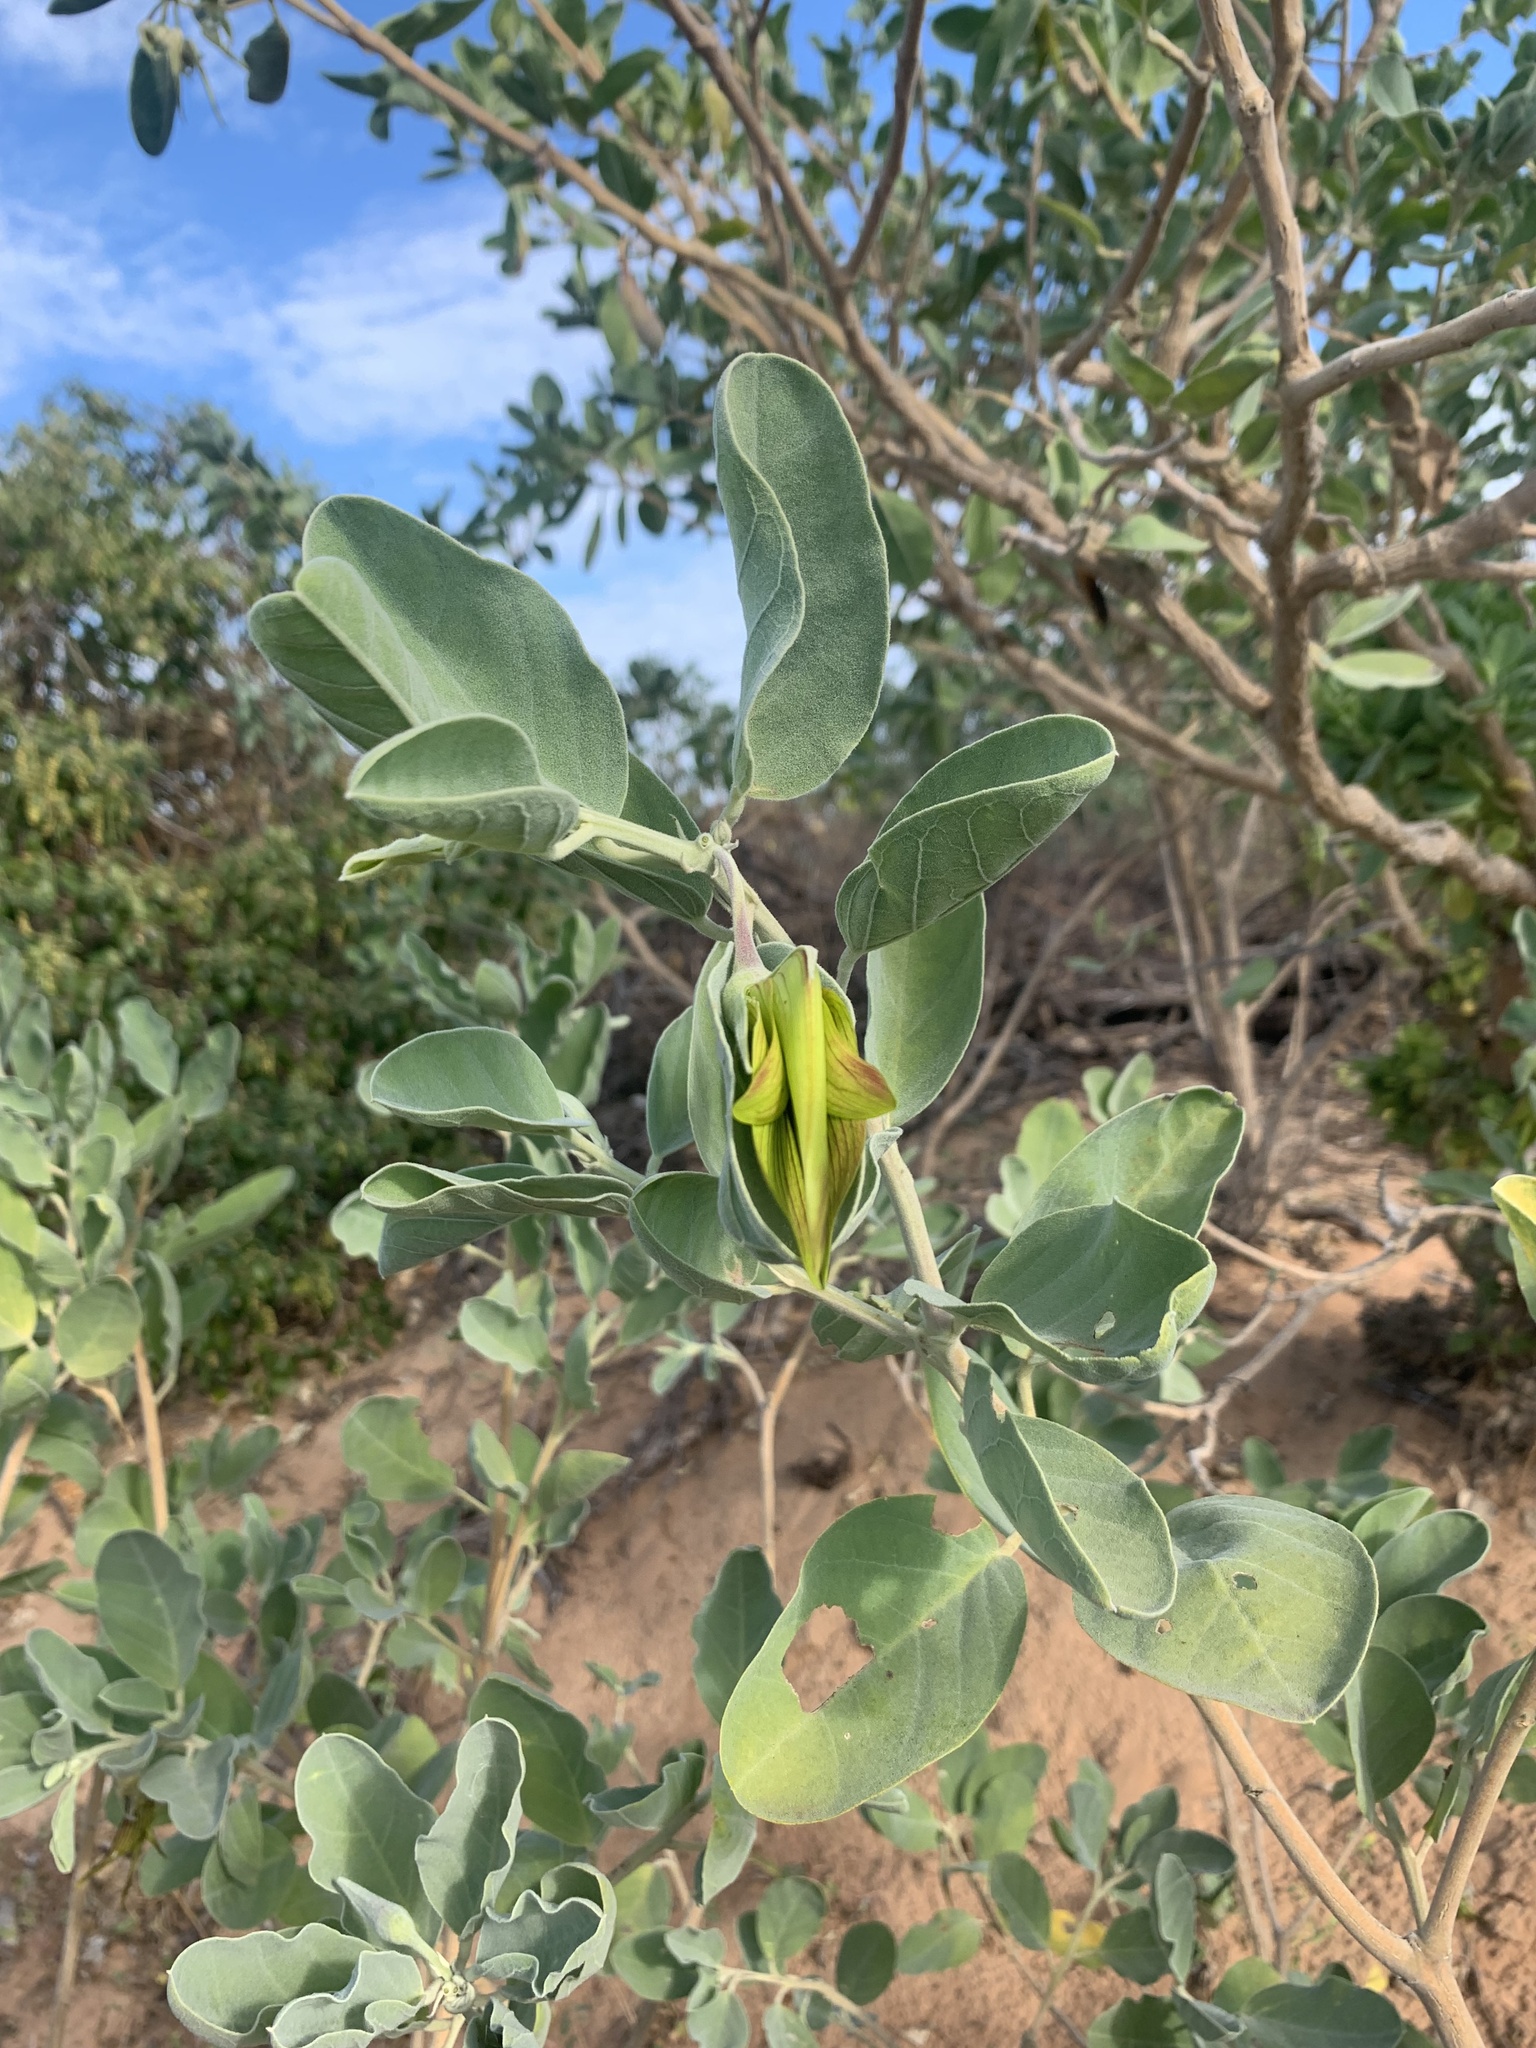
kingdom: Plantae
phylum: Tracheophyta
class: Magnoliopsida
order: Fabales
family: Fabaceae
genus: Crotalaria
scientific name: Crotalaria cunninghamii
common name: Birdflower rattlepod
